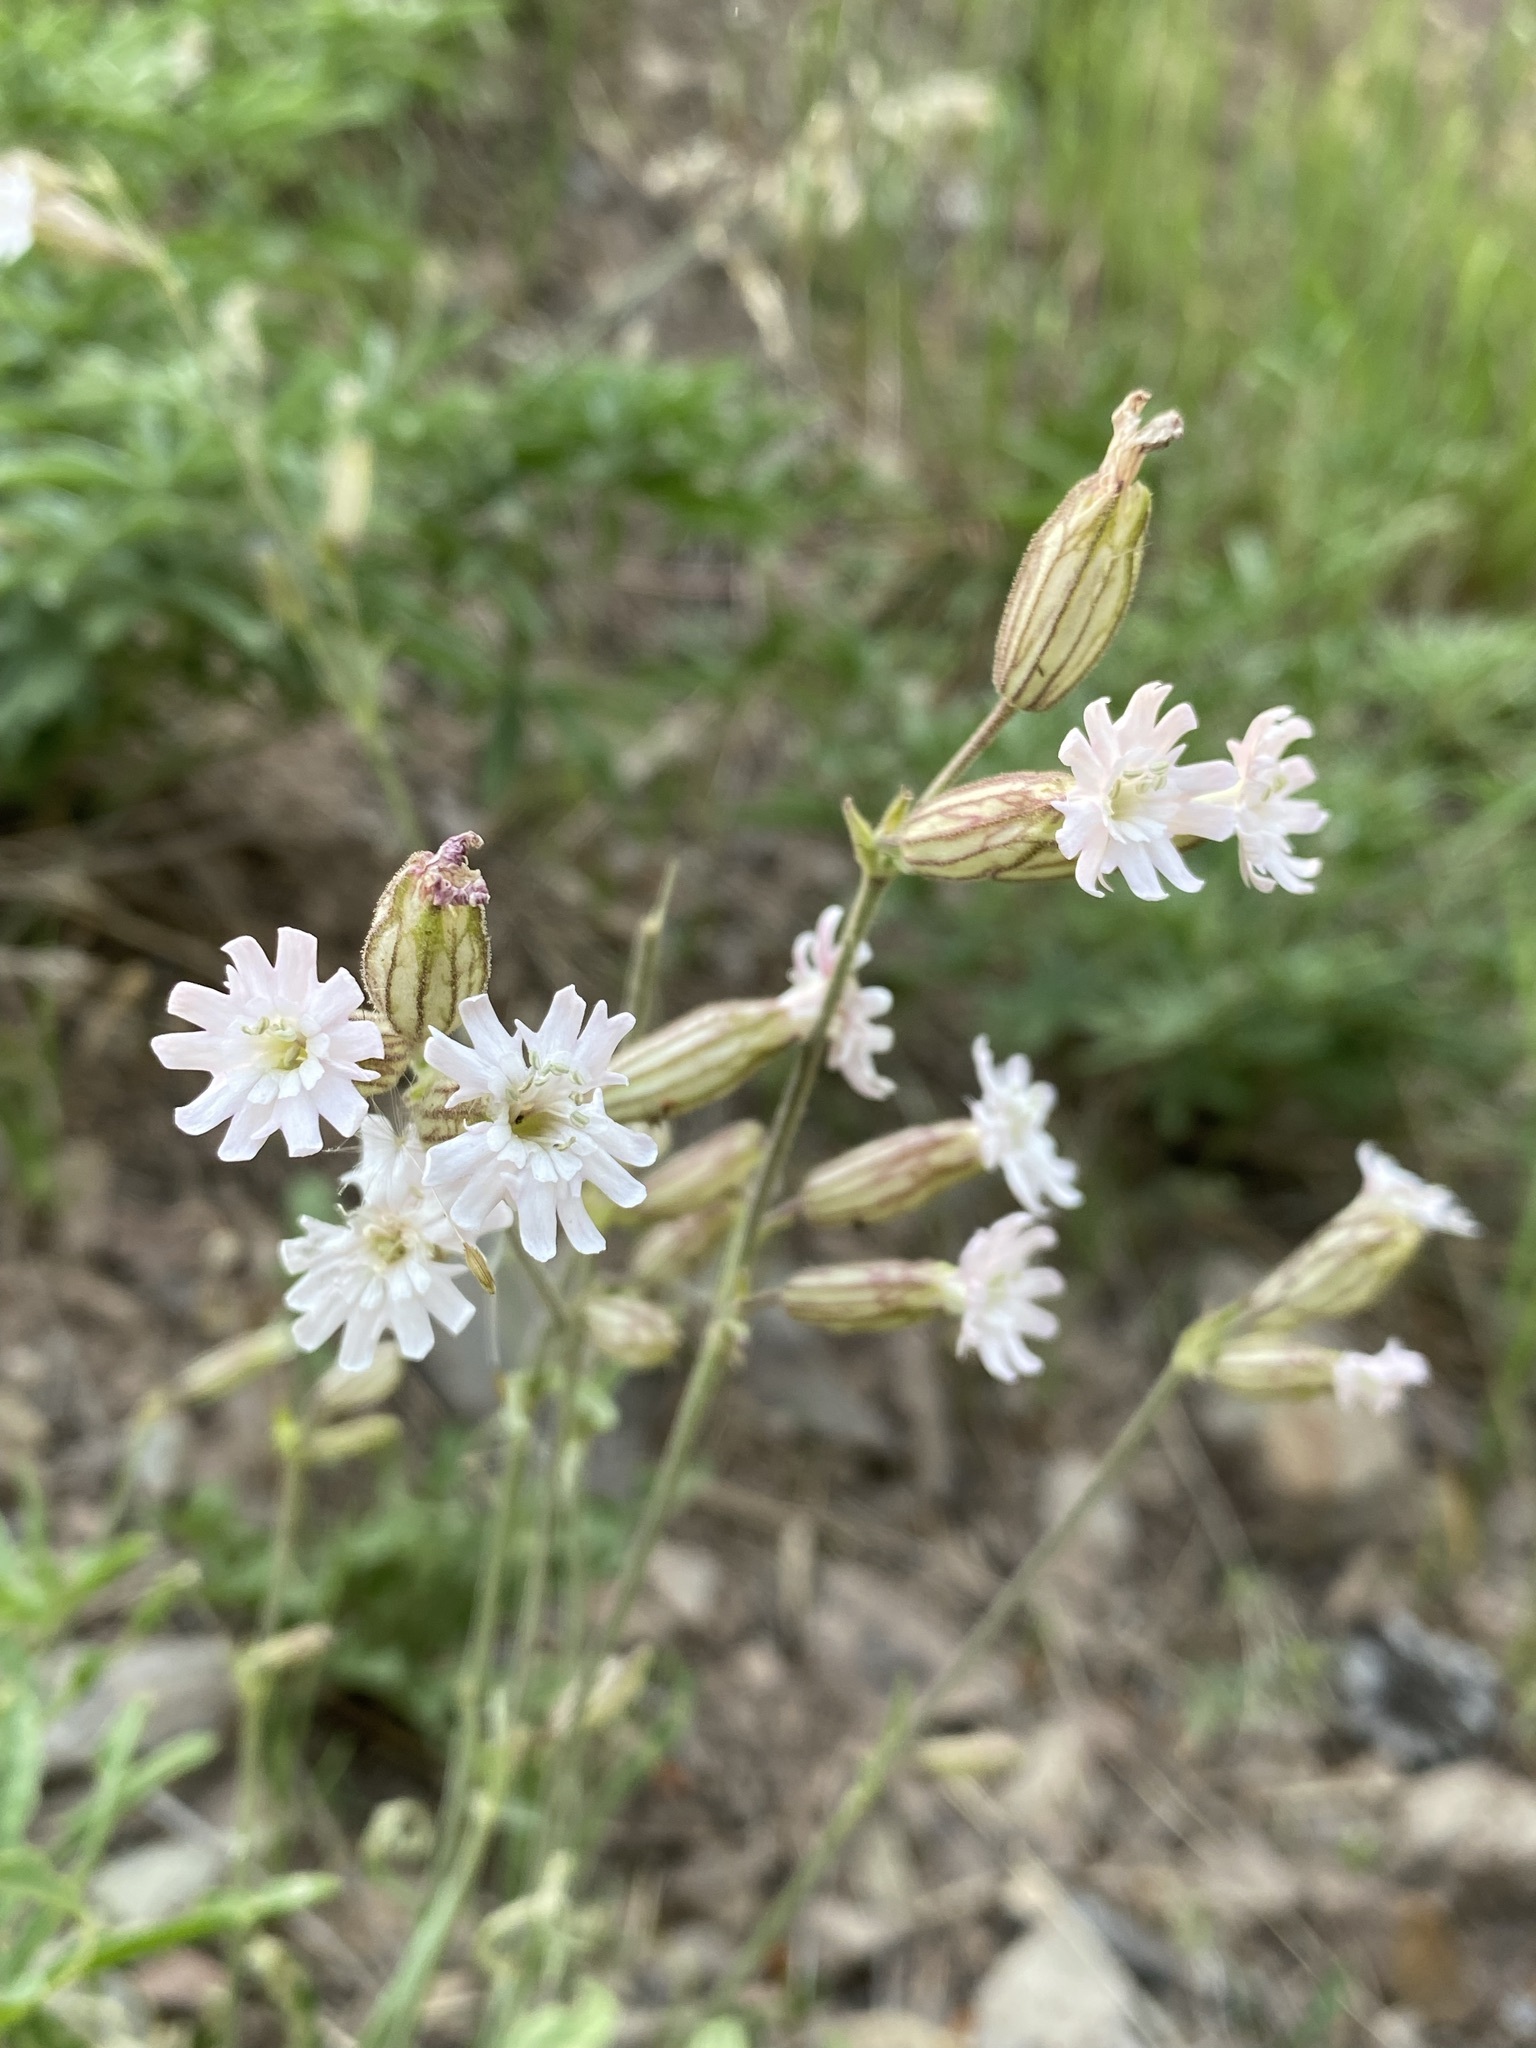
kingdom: Plantae
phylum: Tracheophyta
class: Magnoliopsida
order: Caryophyllales
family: Caryophyllaceae
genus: Silene
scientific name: Silene parryi
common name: Parry's campion
